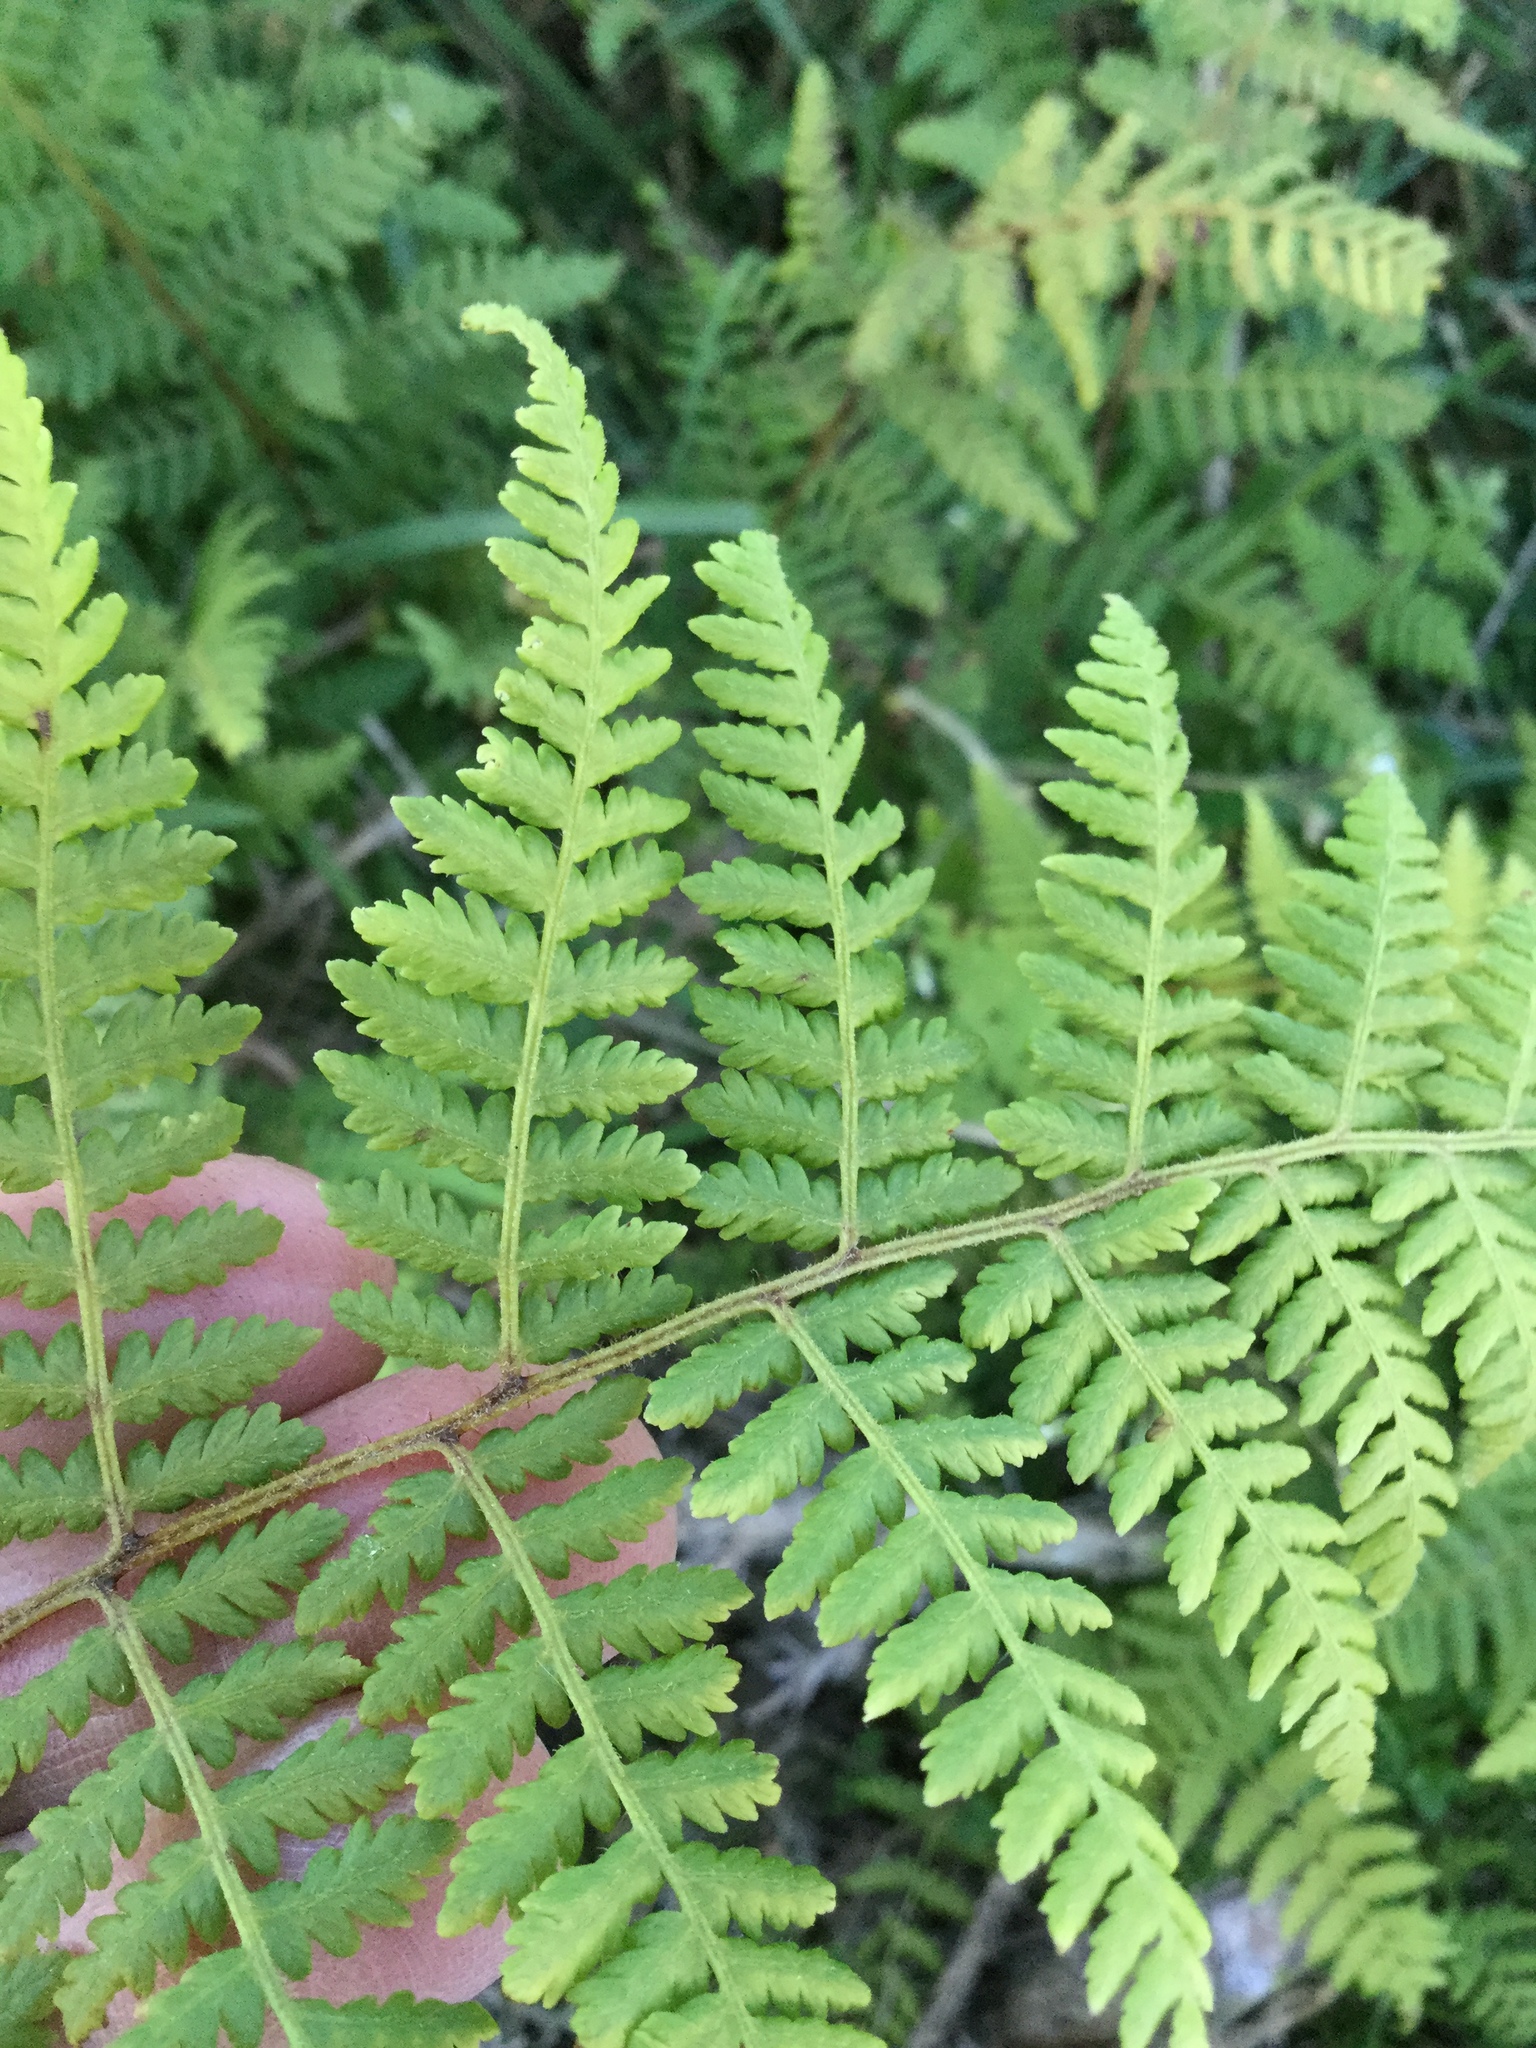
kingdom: Plantae
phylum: Tracheophyta
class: Polypodiopsida
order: Polypodiales
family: Dennstaedtiaceae
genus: Hypolepis
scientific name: Hypolepis ambigua
